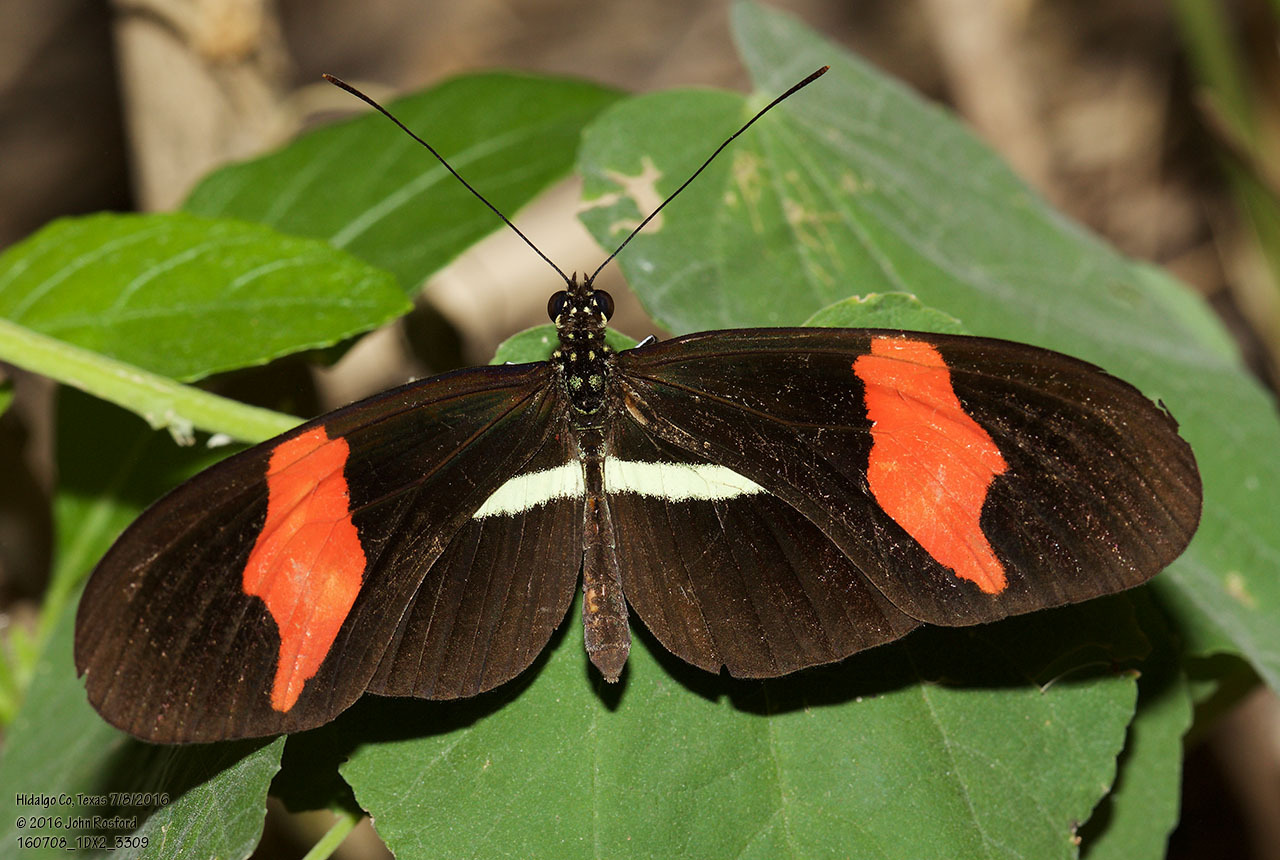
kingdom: Animalia
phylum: Arthropoda
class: Insecta
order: Lepidoptera
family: Nymphalidae
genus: Tirumala
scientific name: Tirumala petiverana
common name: Blue monarch
